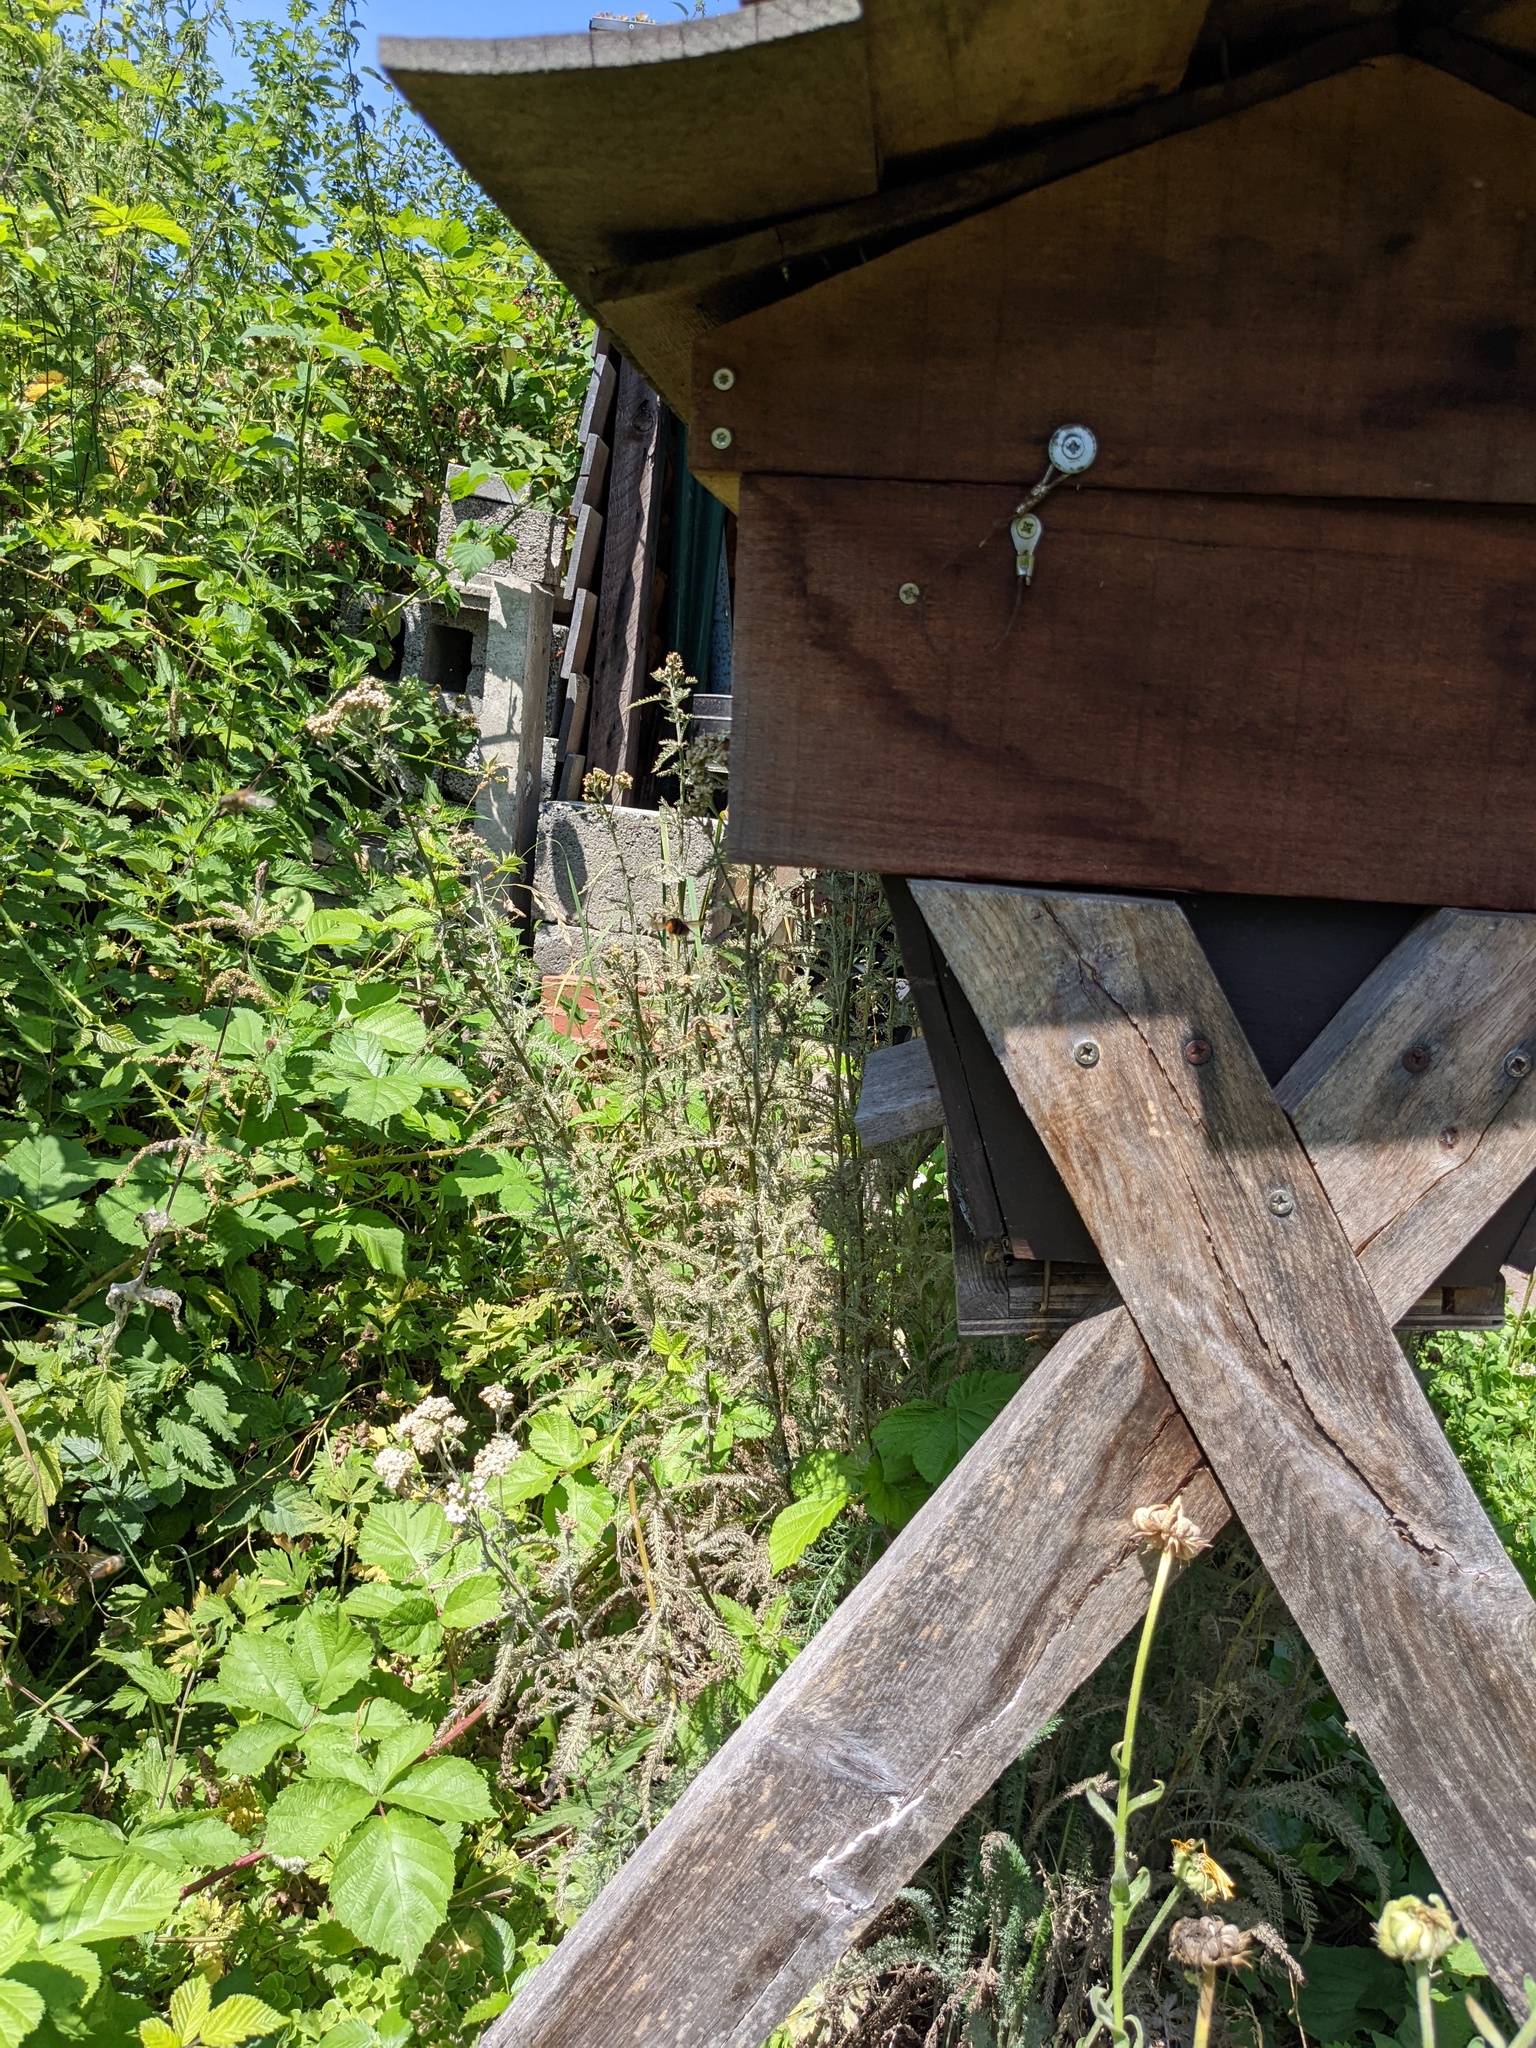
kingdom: Animalia
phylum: Arthropoda
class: Insecta
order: Hymenoptera
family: Vespidae
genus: Vespa
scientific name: Vespa velutina
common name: Asian hornet
